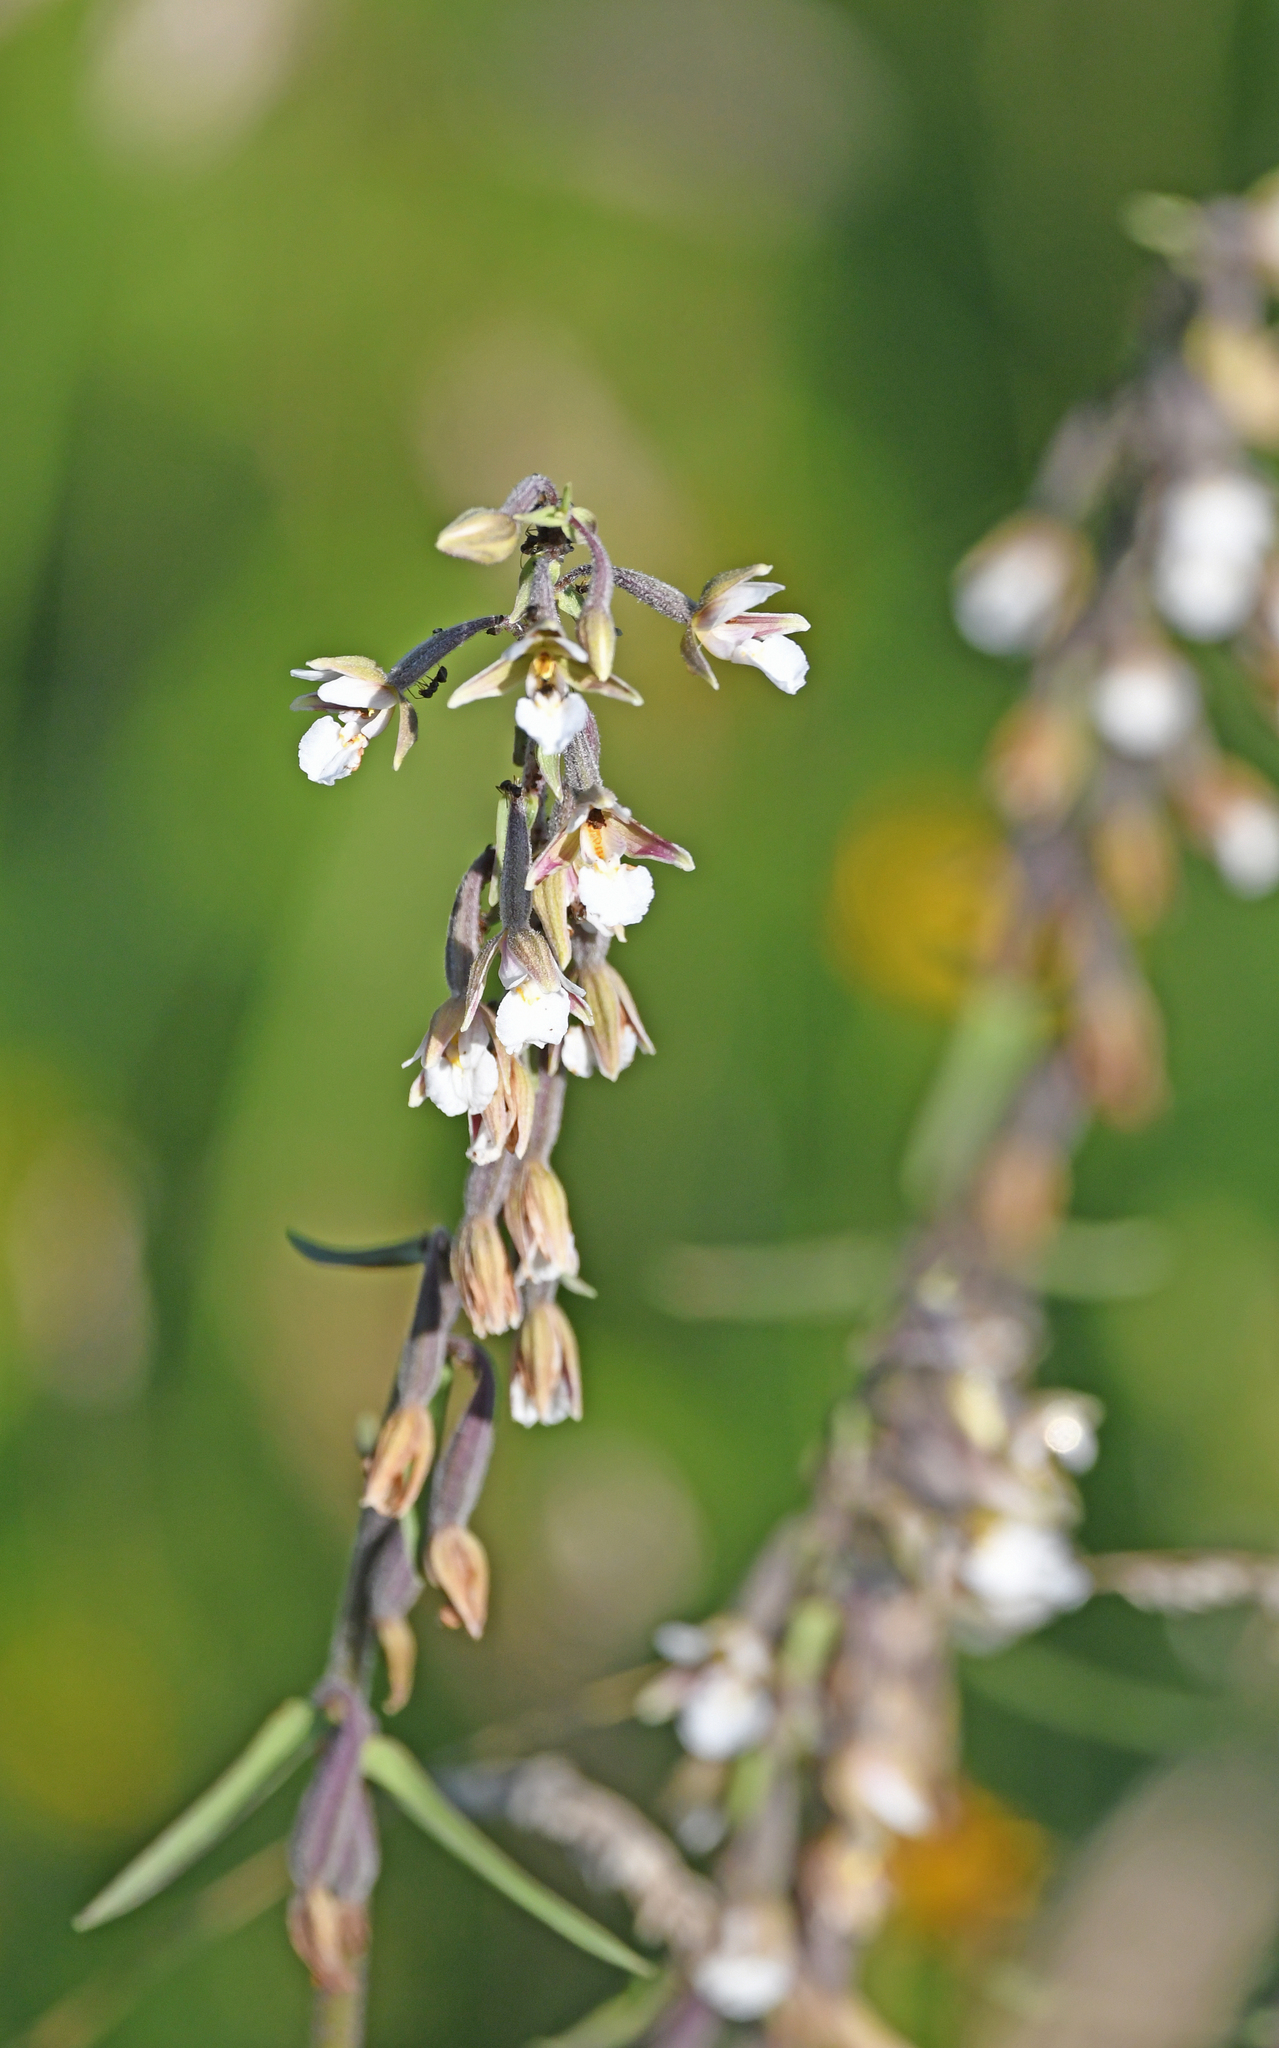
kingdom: Plantae
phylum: Tracheophyta
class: Liliopsida
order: Asparagales
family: Orchidaceae
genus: Epipactis
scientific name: Epipactis palustris
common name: Marsh helleborine
